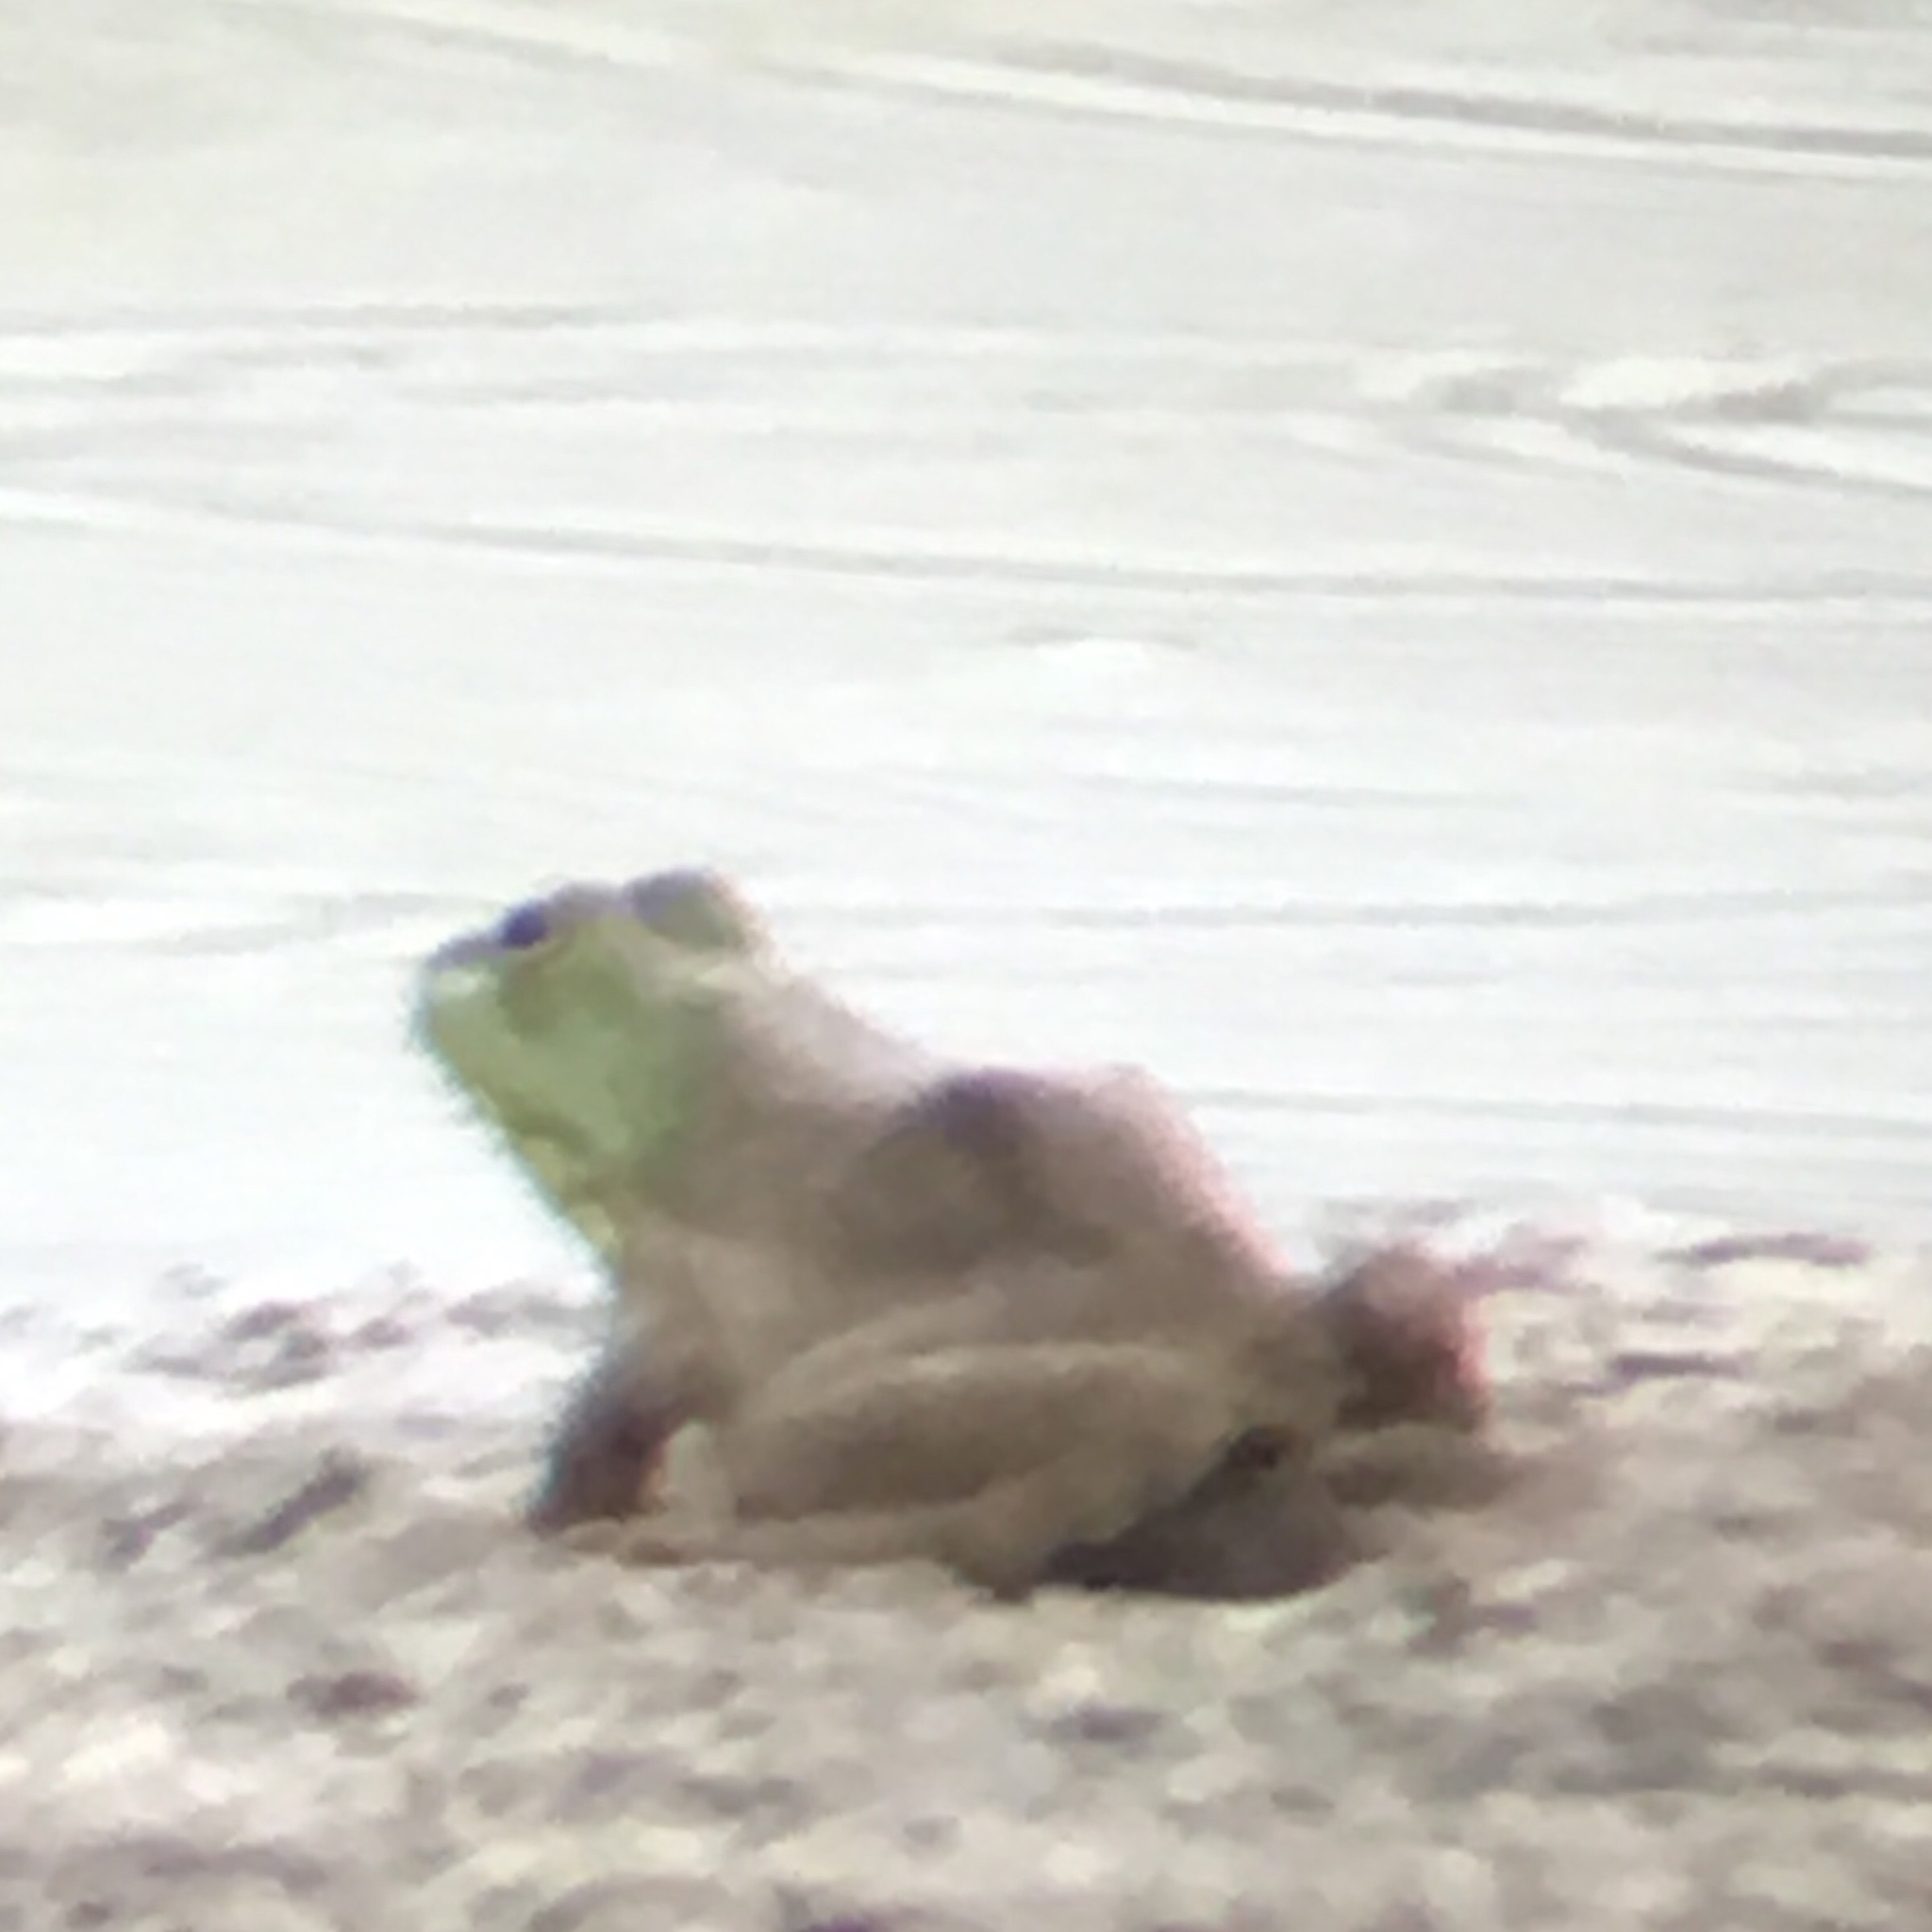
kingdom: Animalia
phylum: Chordata
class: Amphibia
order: Anura
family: Ranidae
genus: Lithobates
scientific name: Lithobates catesbeianus
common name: American bullfrog
